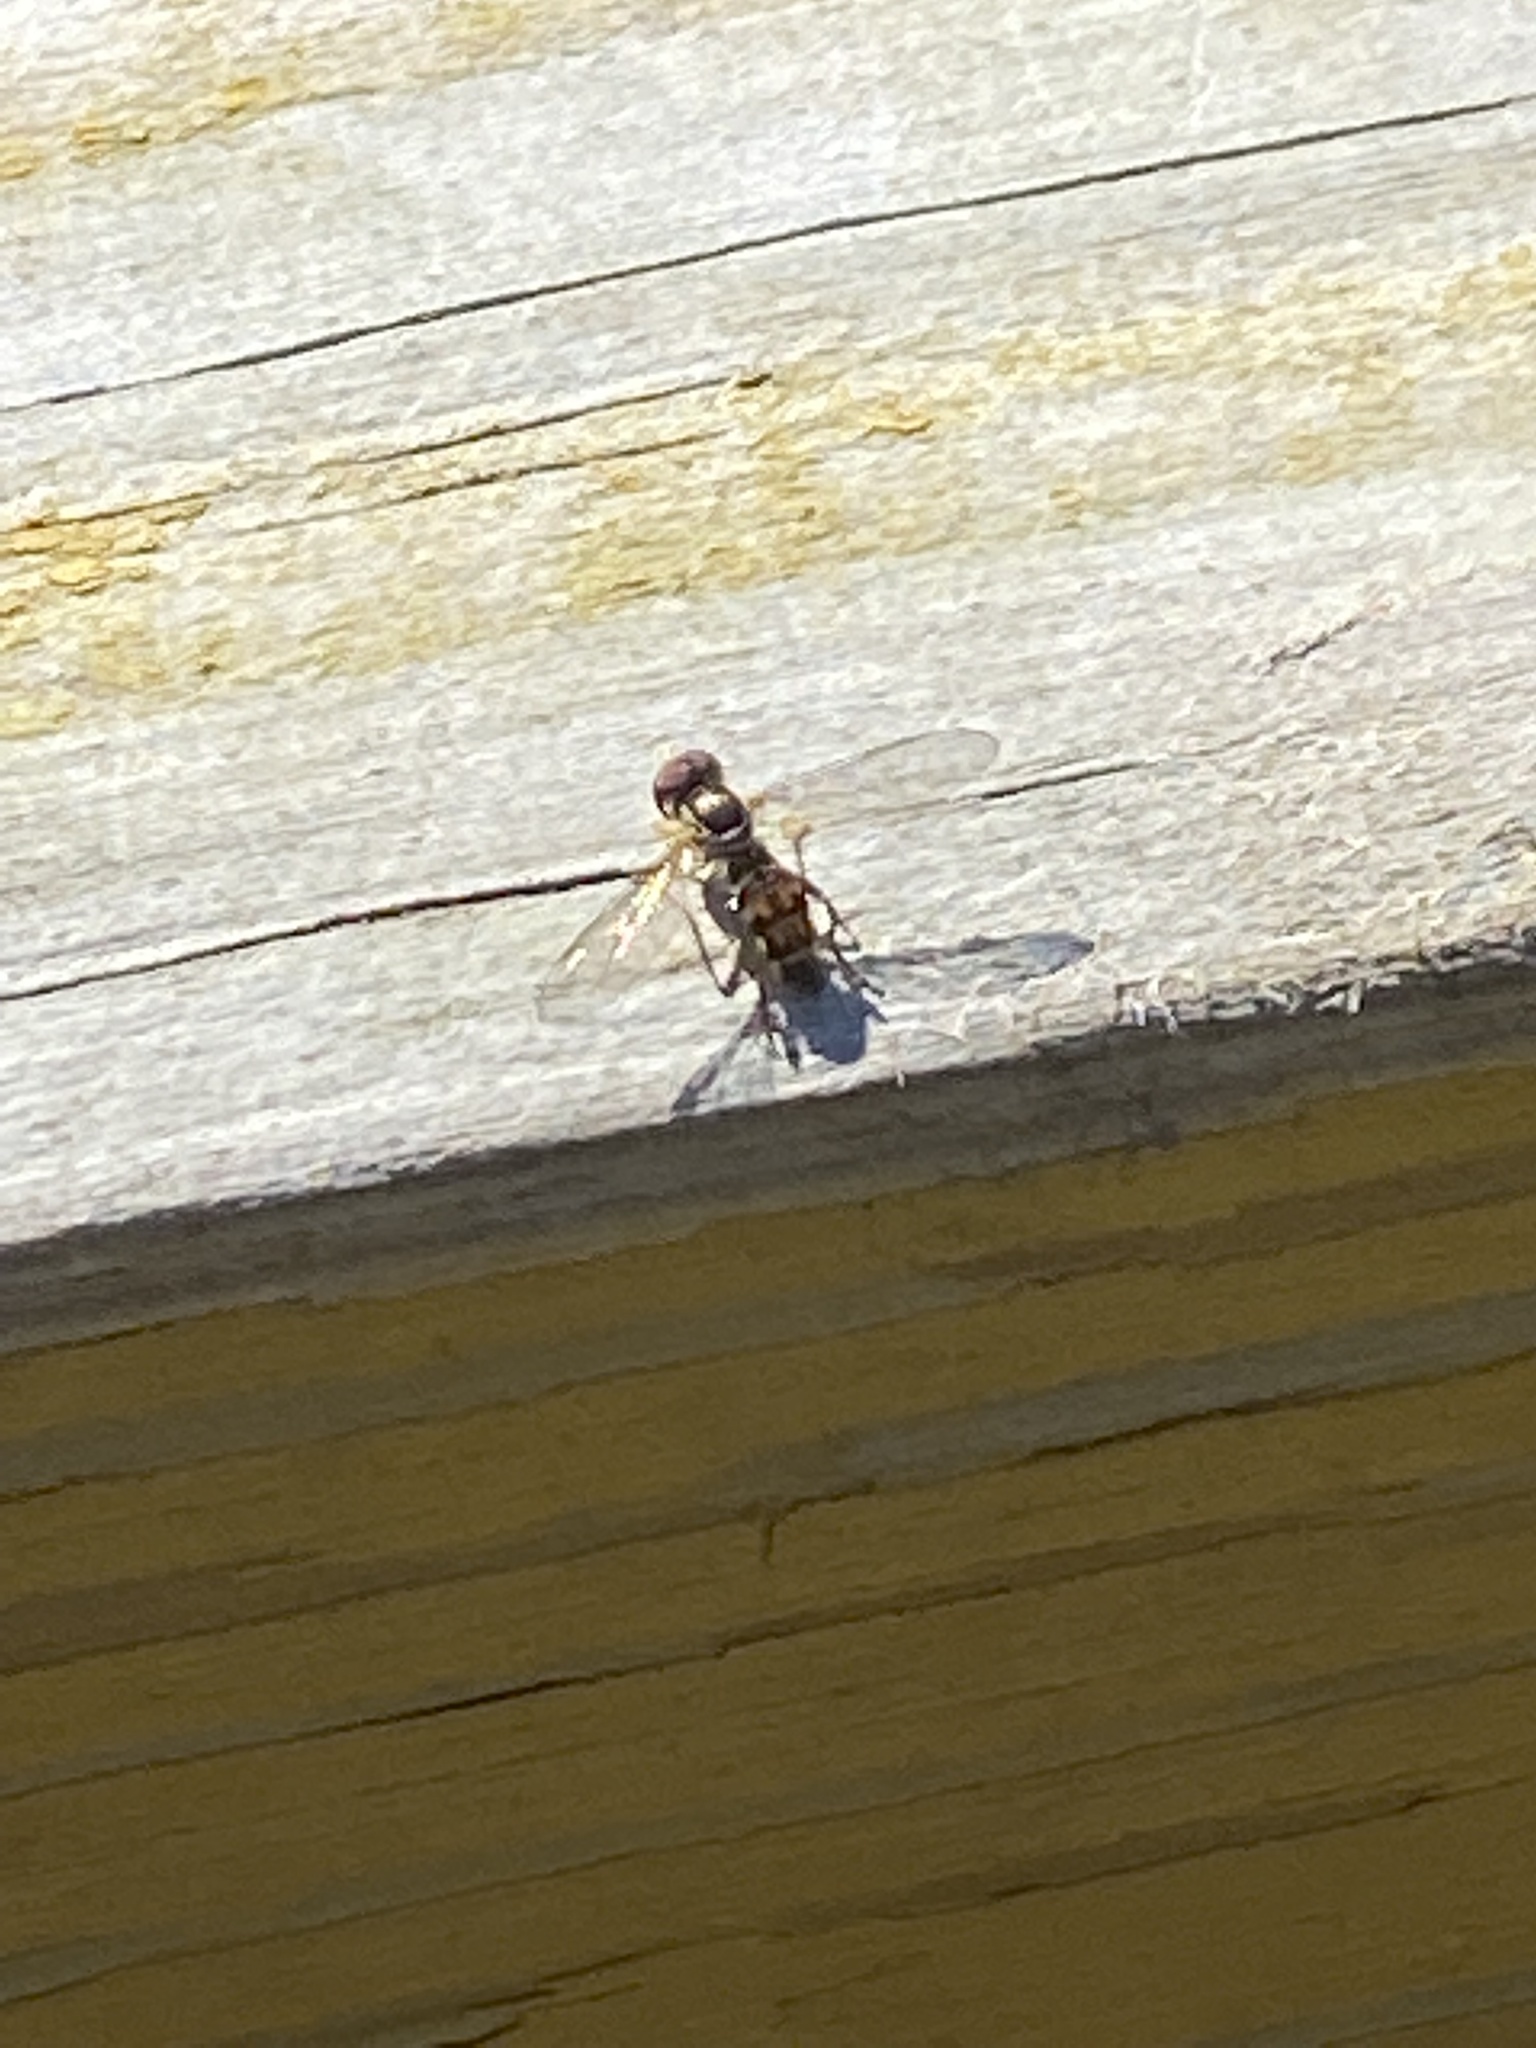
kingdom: Animalia
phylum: Arthropoda
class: Insecta
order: Diptera
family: Syrphidae
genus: Toxomerus
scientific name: Toxomerus geminatus
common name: Eastern calligrapher
